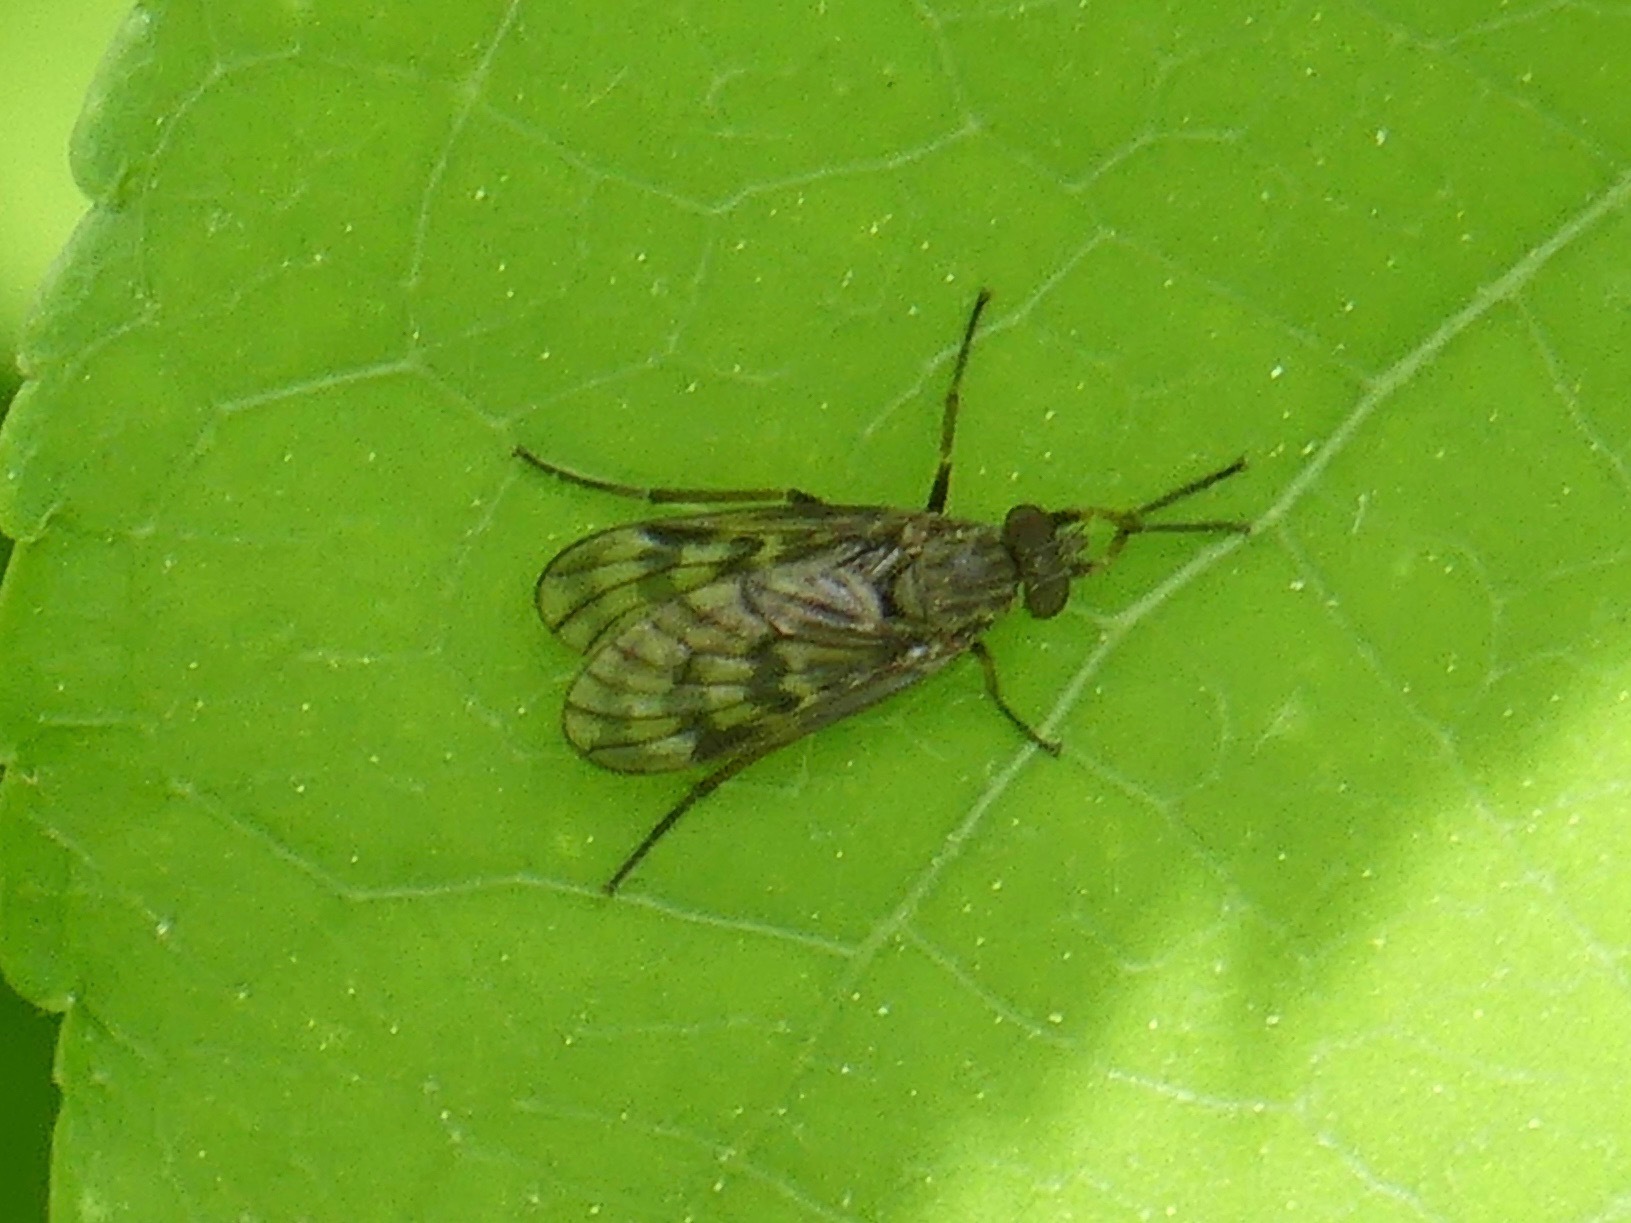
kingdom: Animalia
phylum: Arthropoda
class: Insecta
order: Diptera
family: Rhagionidae
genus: Rhagio
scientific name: Rhagio mystaceus
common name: Common snipe fly
